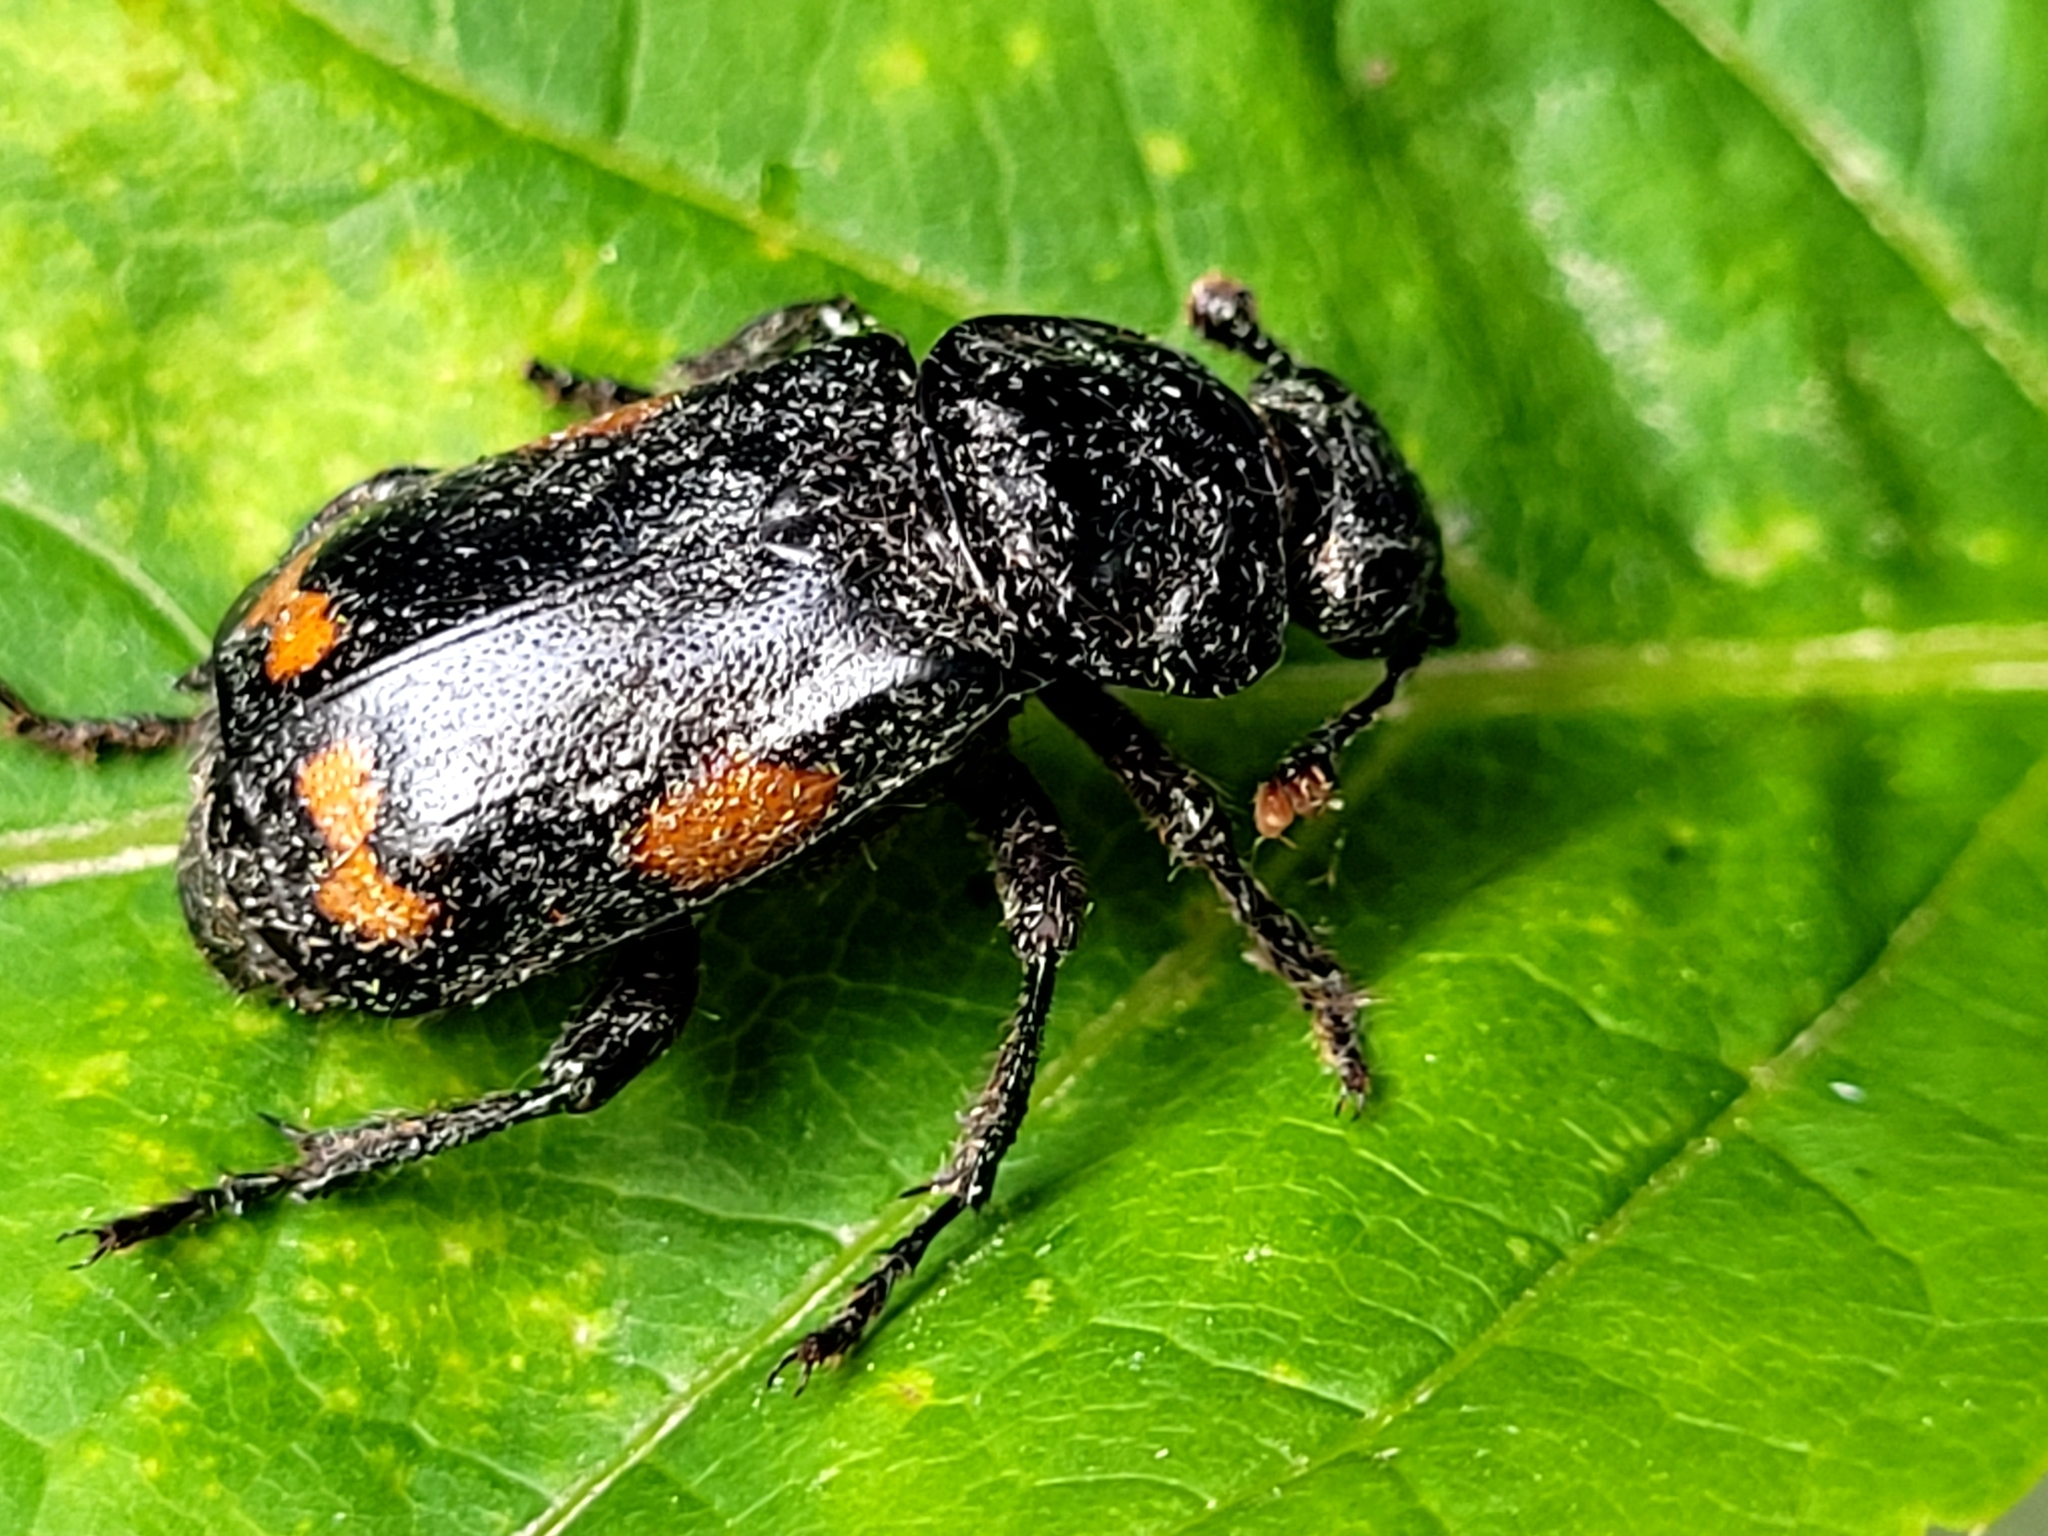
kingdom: Animalia
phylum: Arthropoda
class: Insecta
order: Coleoptera
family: Staphylinidae
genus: Nicrophorus
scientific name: Nicrophorus pustulatus
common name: Pustulated carrion beetle
